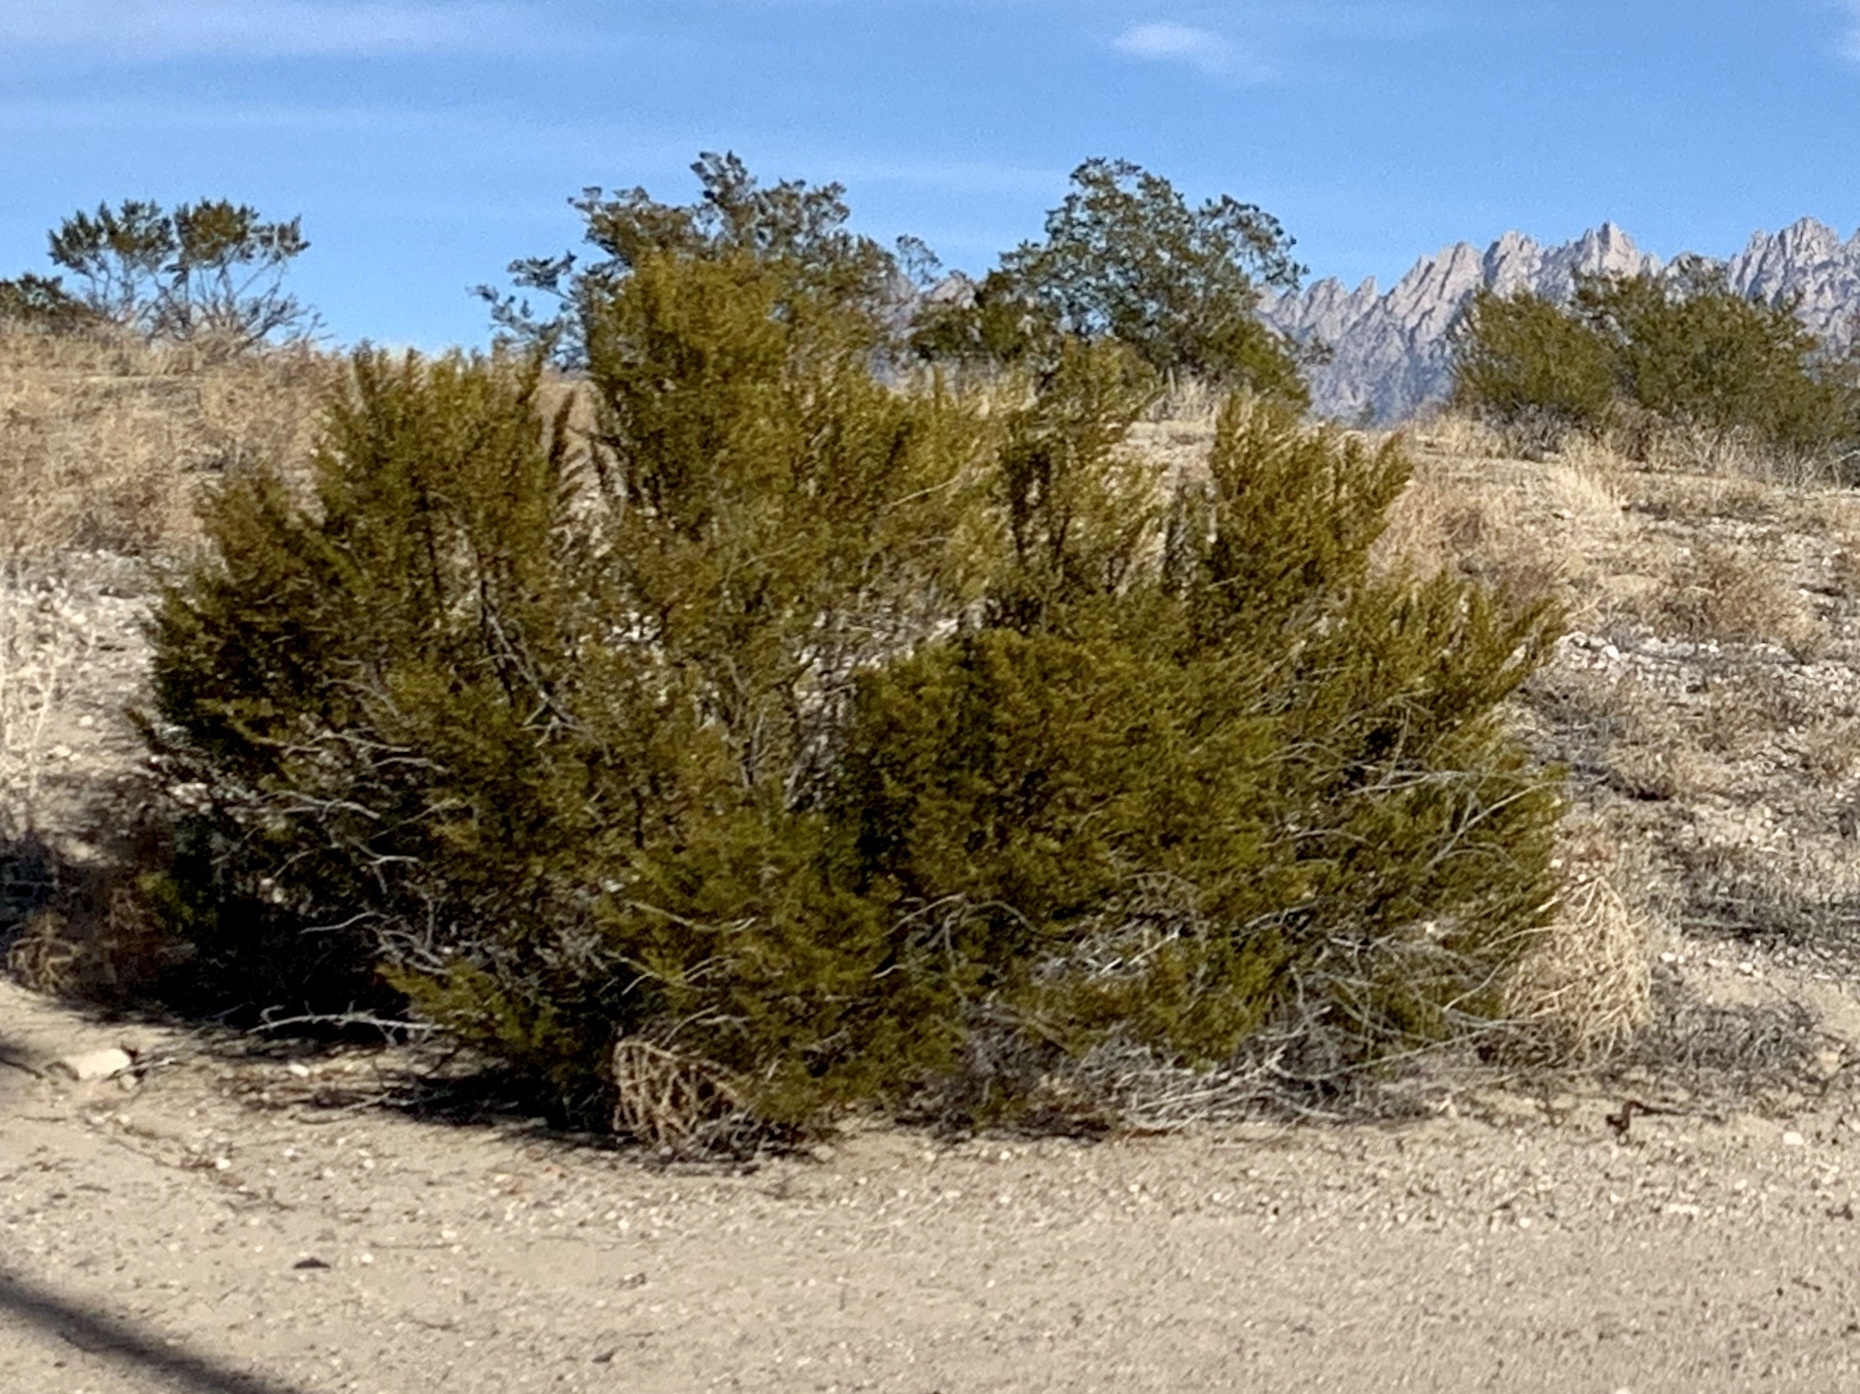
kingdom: Plantae
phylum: Tracheophyta
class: Magnoliopsida
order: Zygophyllales
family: Zygophyllaceae
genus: Larrea
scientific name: Larrea tridentata
